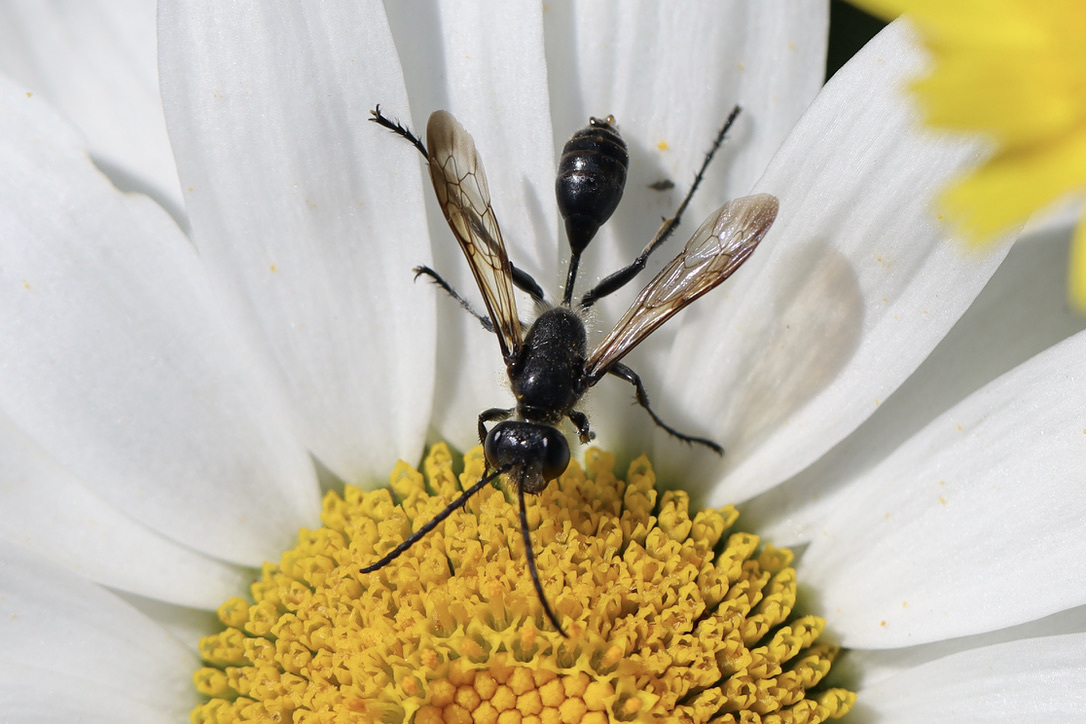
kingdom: Animalia
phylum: Arthropoda
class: Insecta
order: Hymenoptera
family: Sphecidae
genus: Isodontia
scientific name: Isodontia mexicana
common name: Mud dauber
